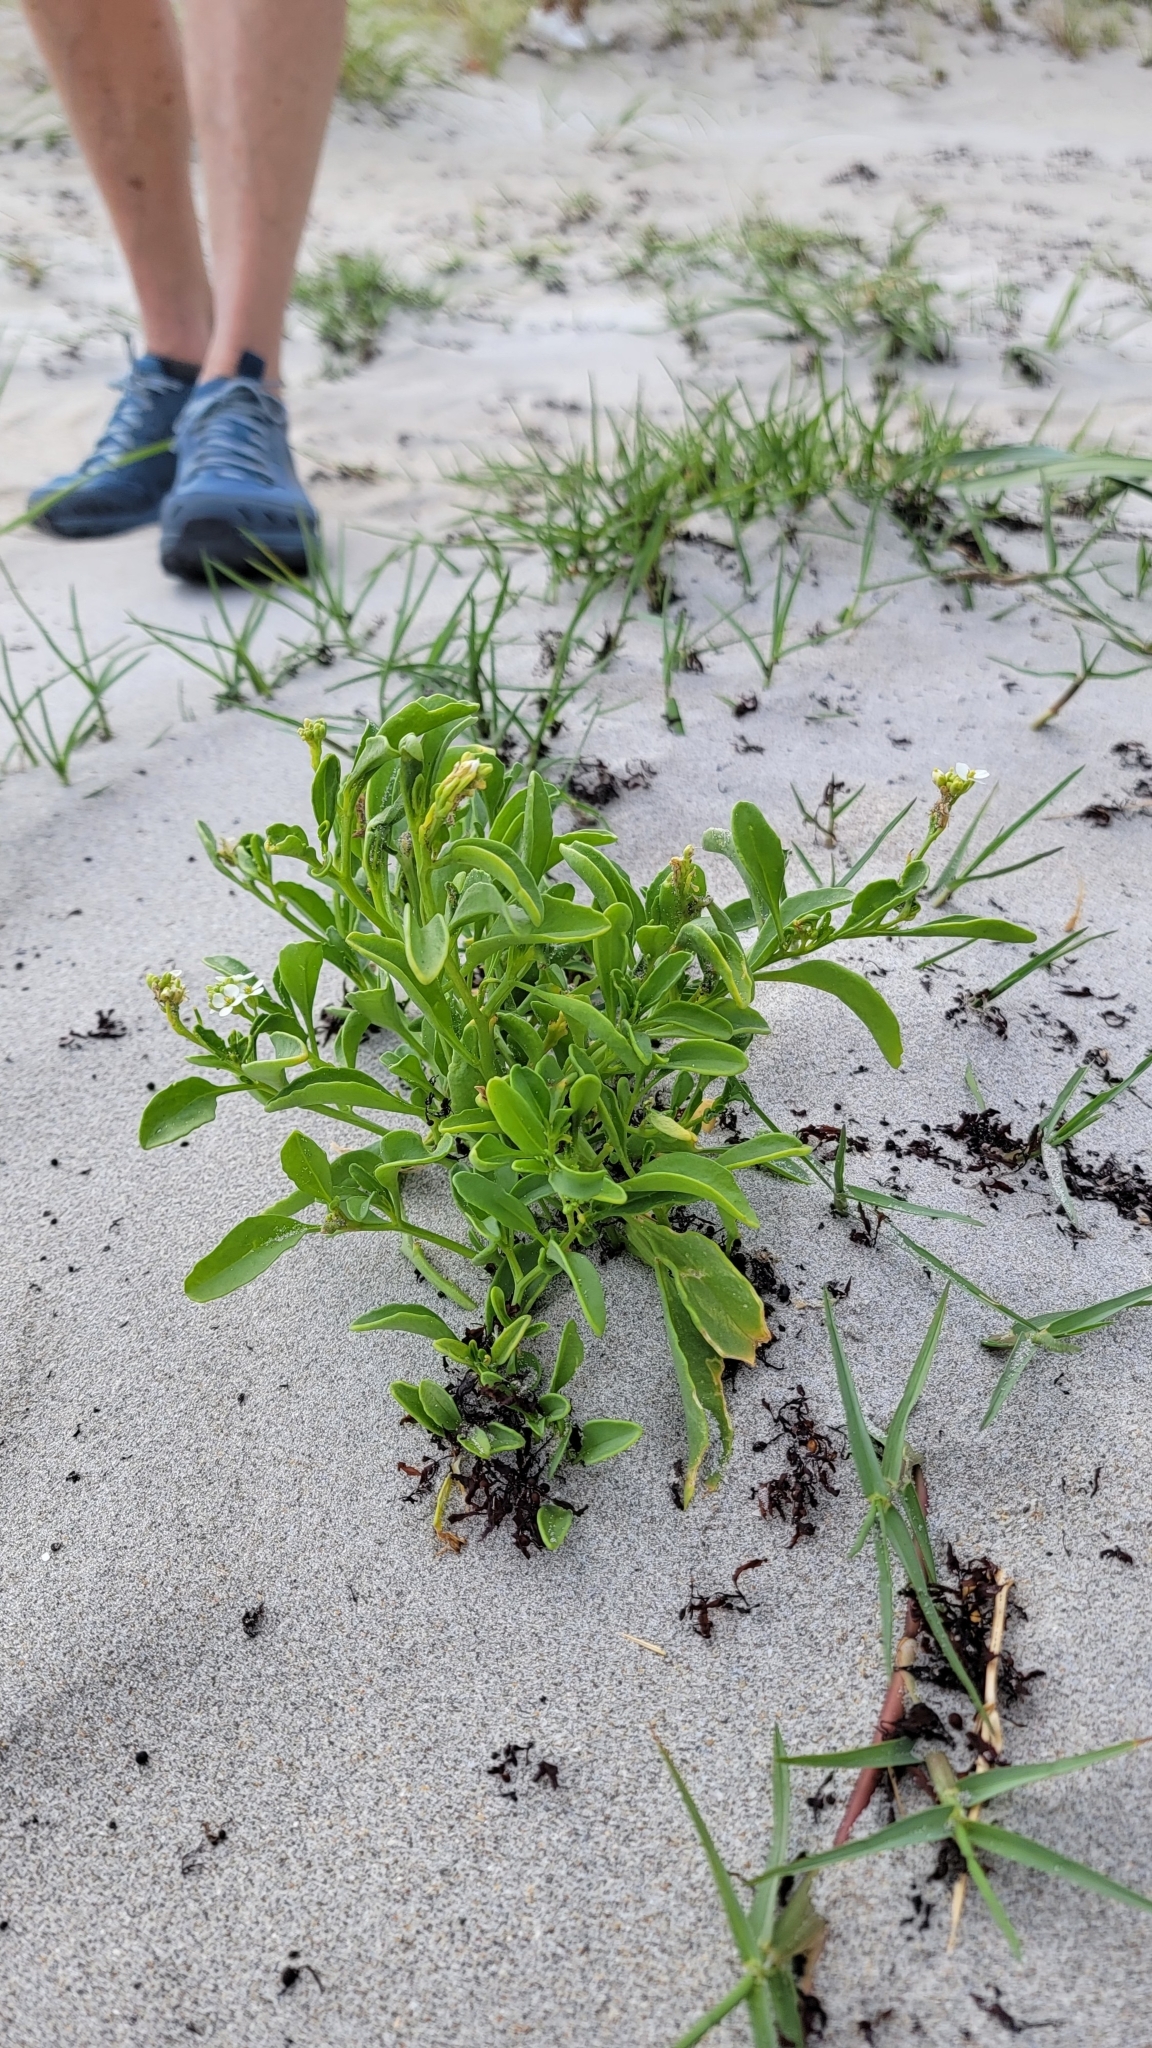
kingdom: Plantae
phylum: Tracheophyta
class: Magnoliopsida
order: Brassicales
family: Brassicaceae
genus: Cakile
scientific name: Cakile lanceolata
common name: Sea rocket
